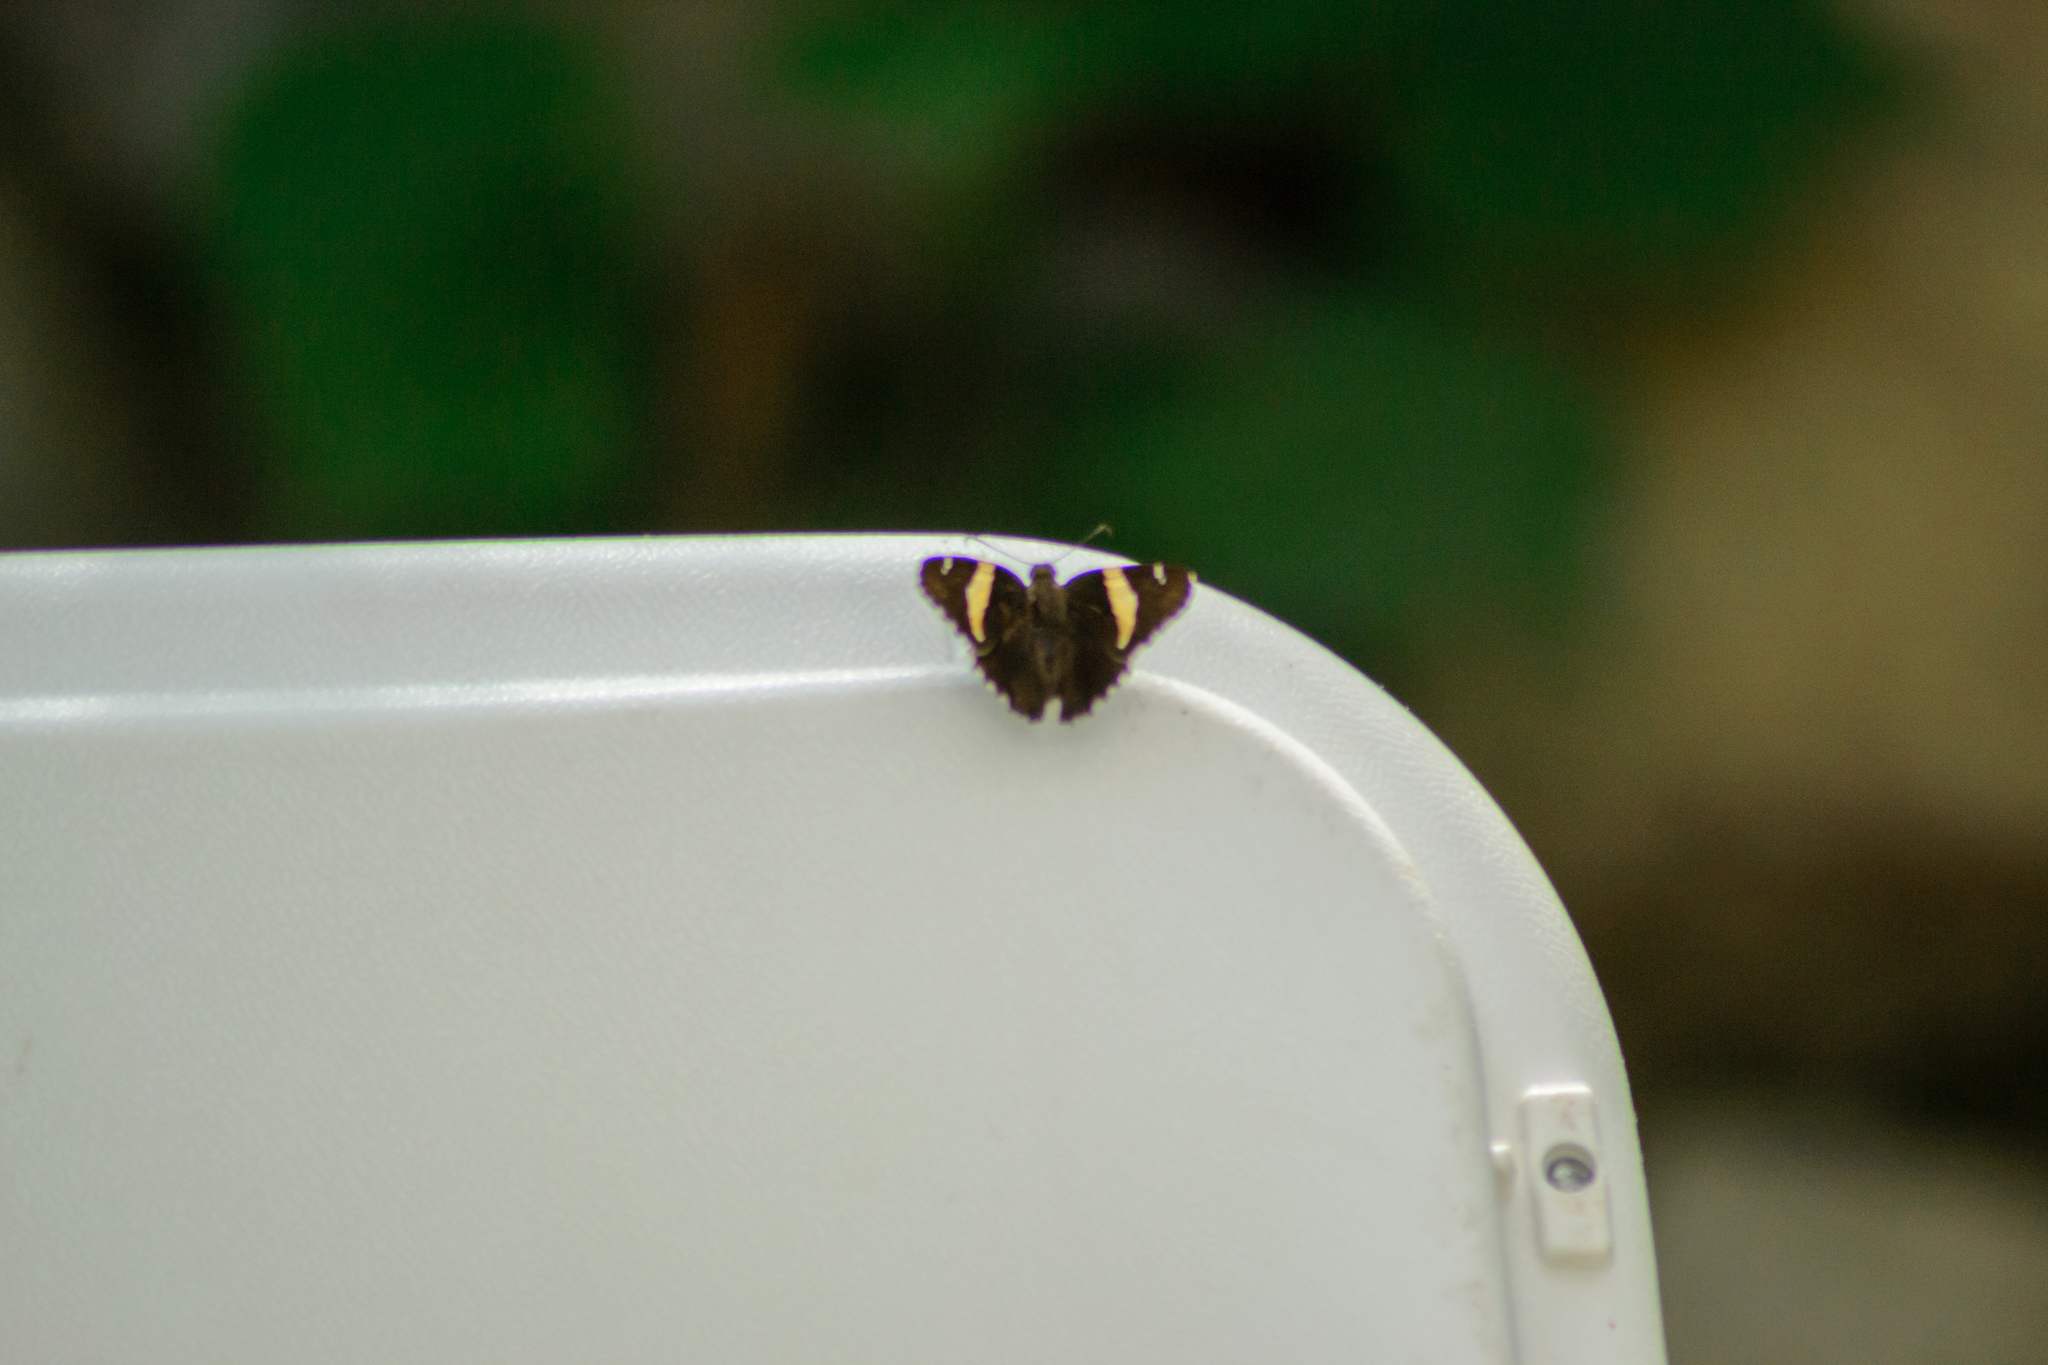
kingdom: Animalia
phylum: Arthropoda
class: Arachnida
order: Scorpiones
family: Bothriuridae
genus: Telegonus
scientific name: Telegonus cellus
